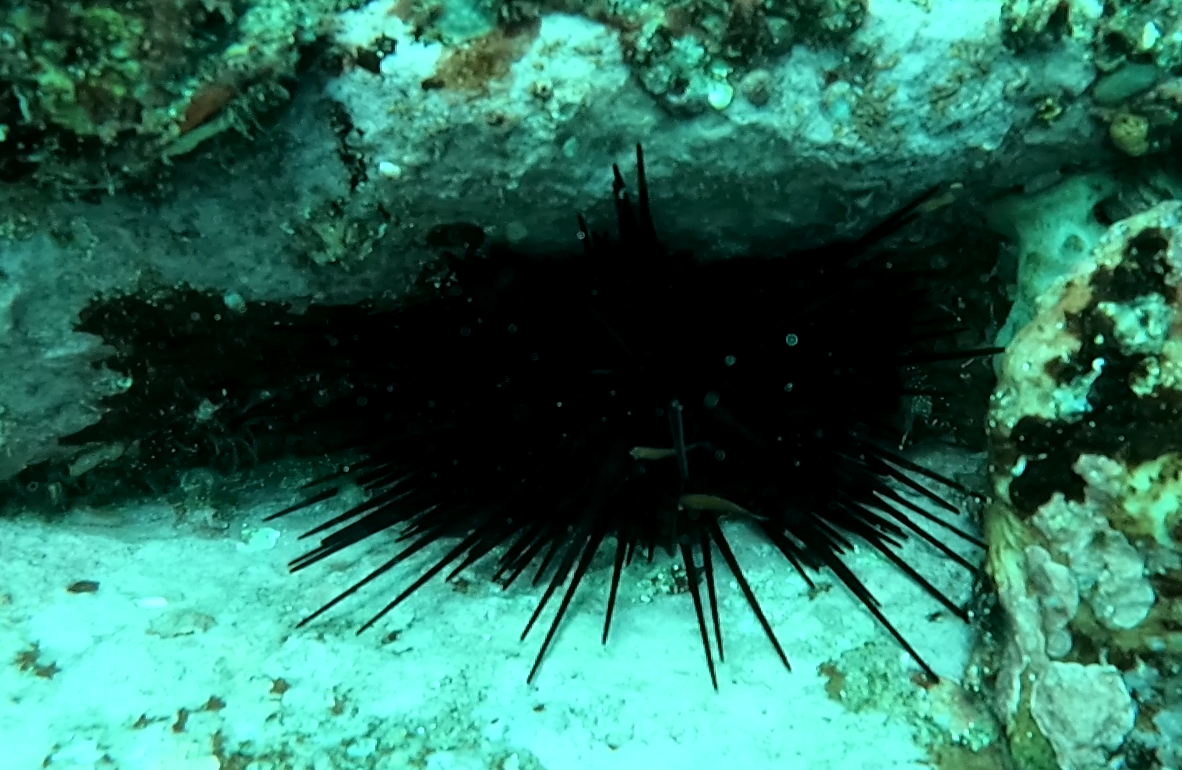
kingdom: Animalia
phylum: Echinodermata
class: Echinoidea
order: Diadematoida
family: Diadematidae
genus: Centrostephanus
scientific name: Centrostephanus rodgersii
